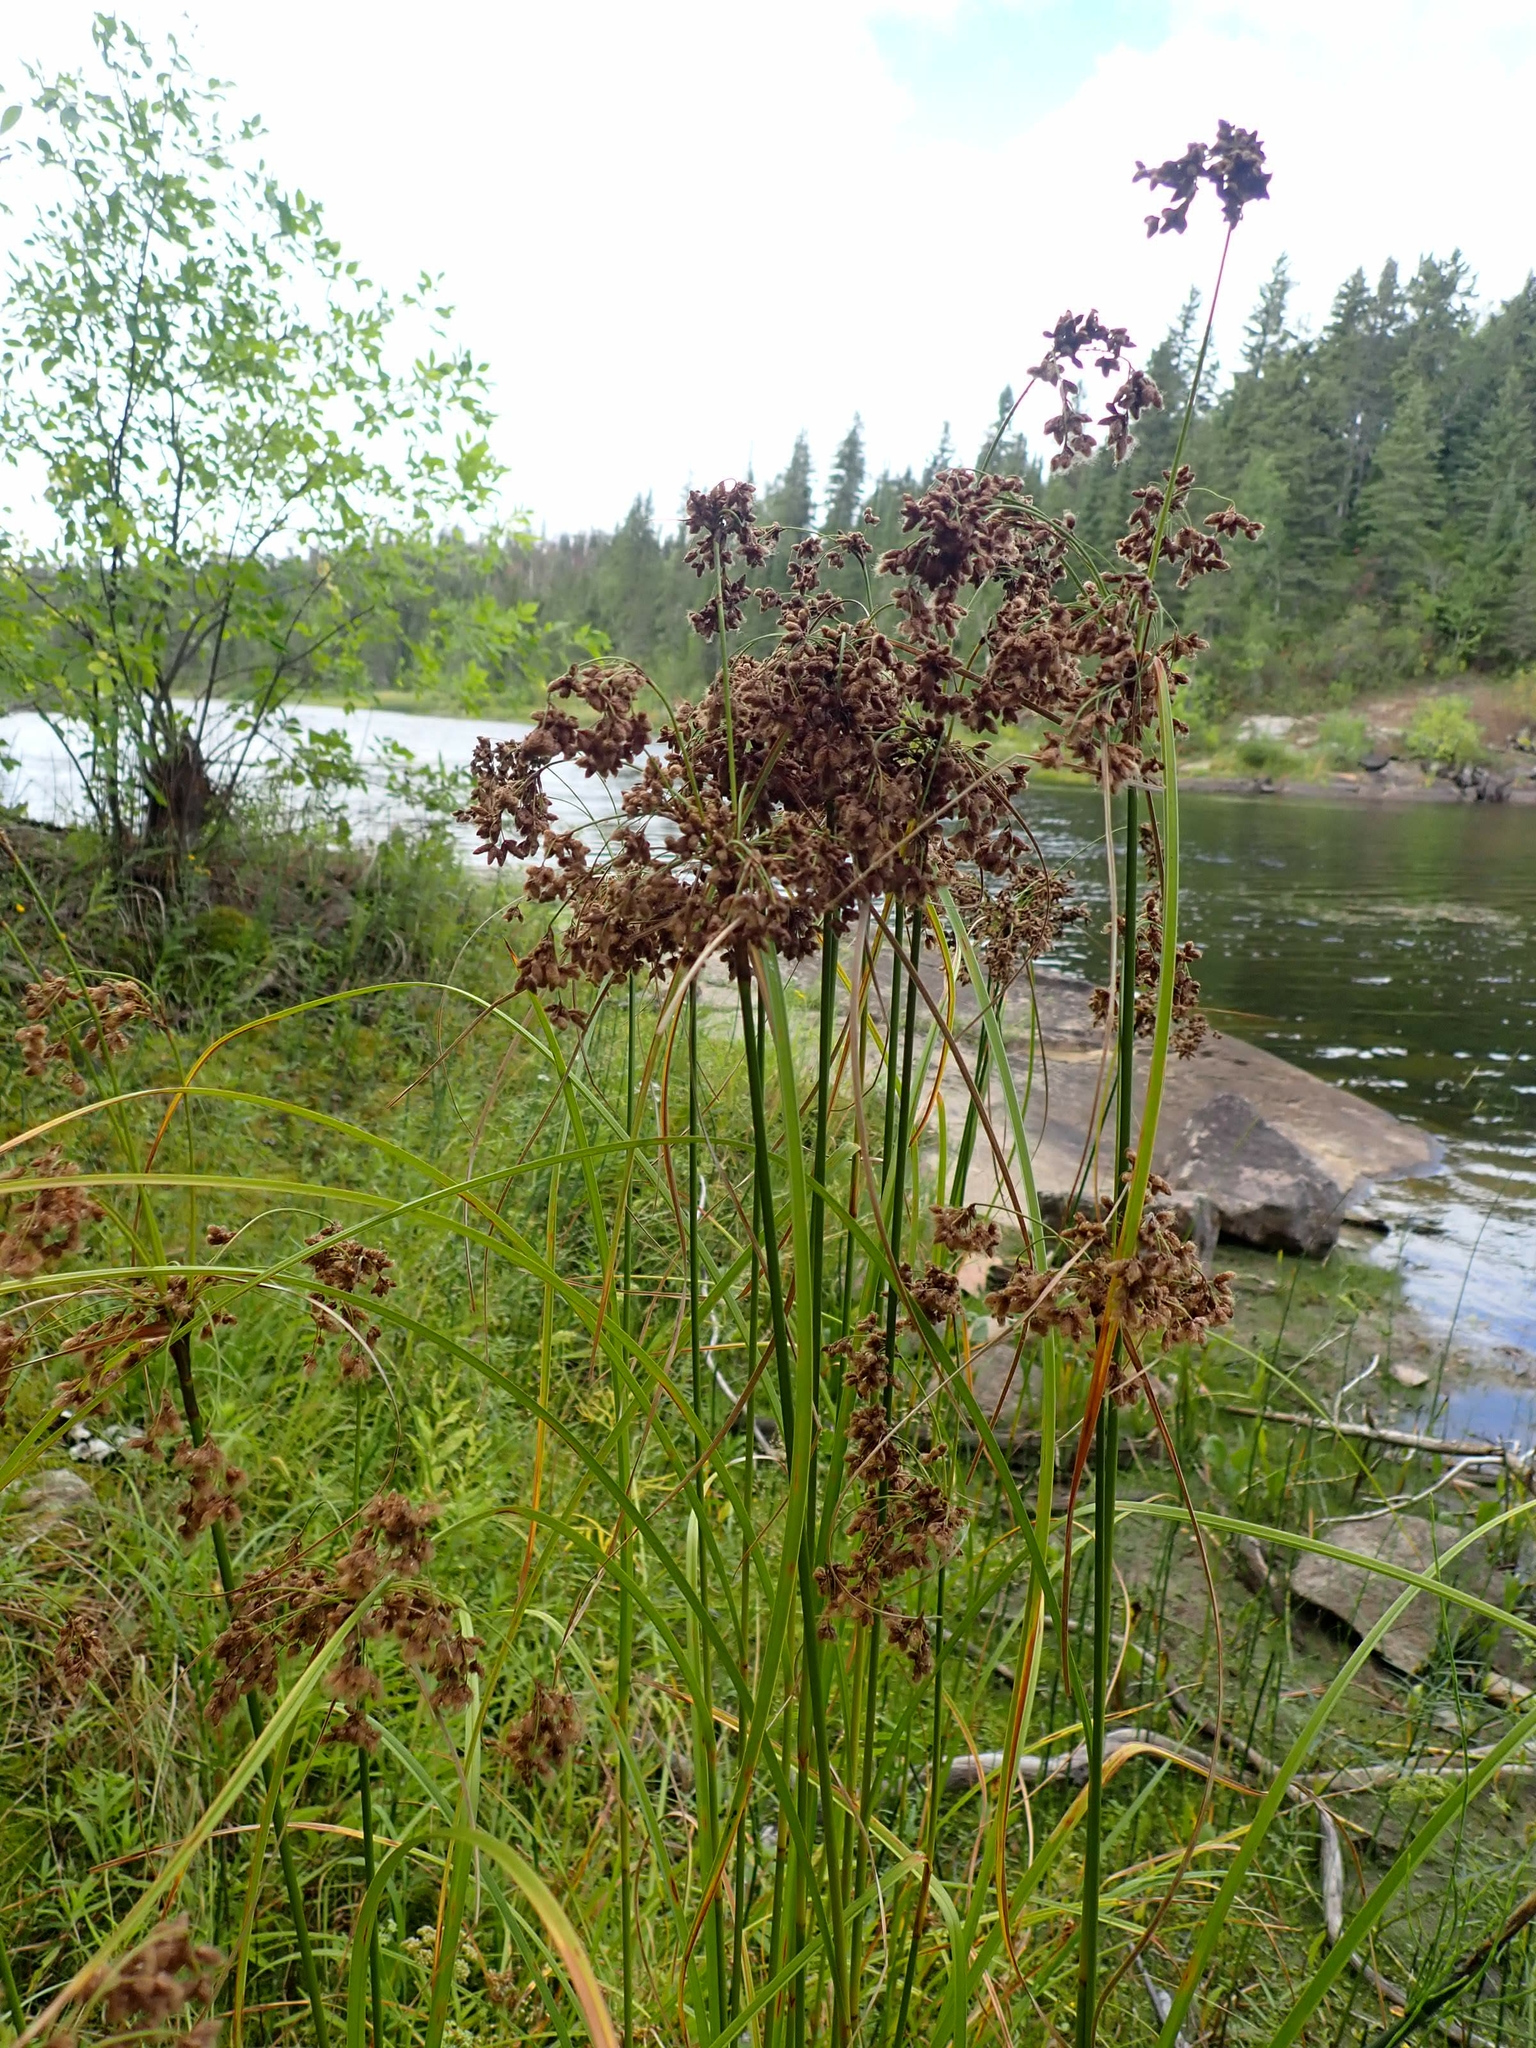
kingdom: Plantae
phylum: Tracheophyta
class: Liliopsida
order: Poales
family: Cyperaceae
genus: Scirpus
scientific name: Scirpus cyperinus
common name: Black-sheathed bulrush
